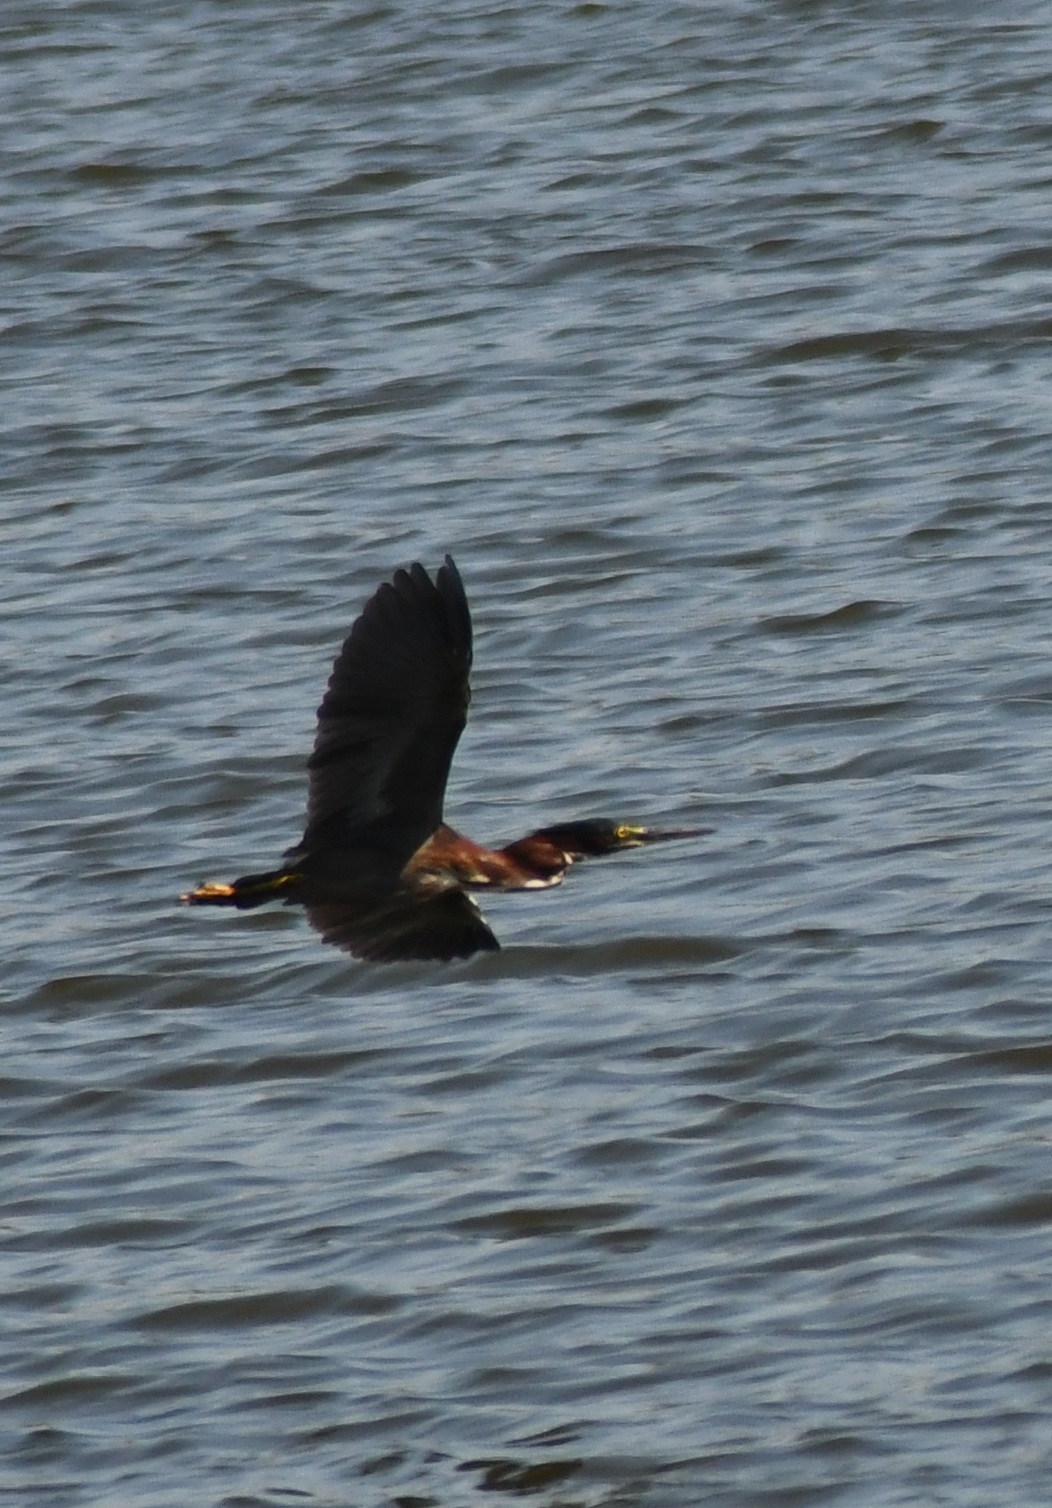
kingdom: Animalia
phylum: Chordata
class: Aves
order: Pelecaniformes
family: Ardeidae
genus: Butorides
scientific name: Butorides virescens
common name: Green heron
